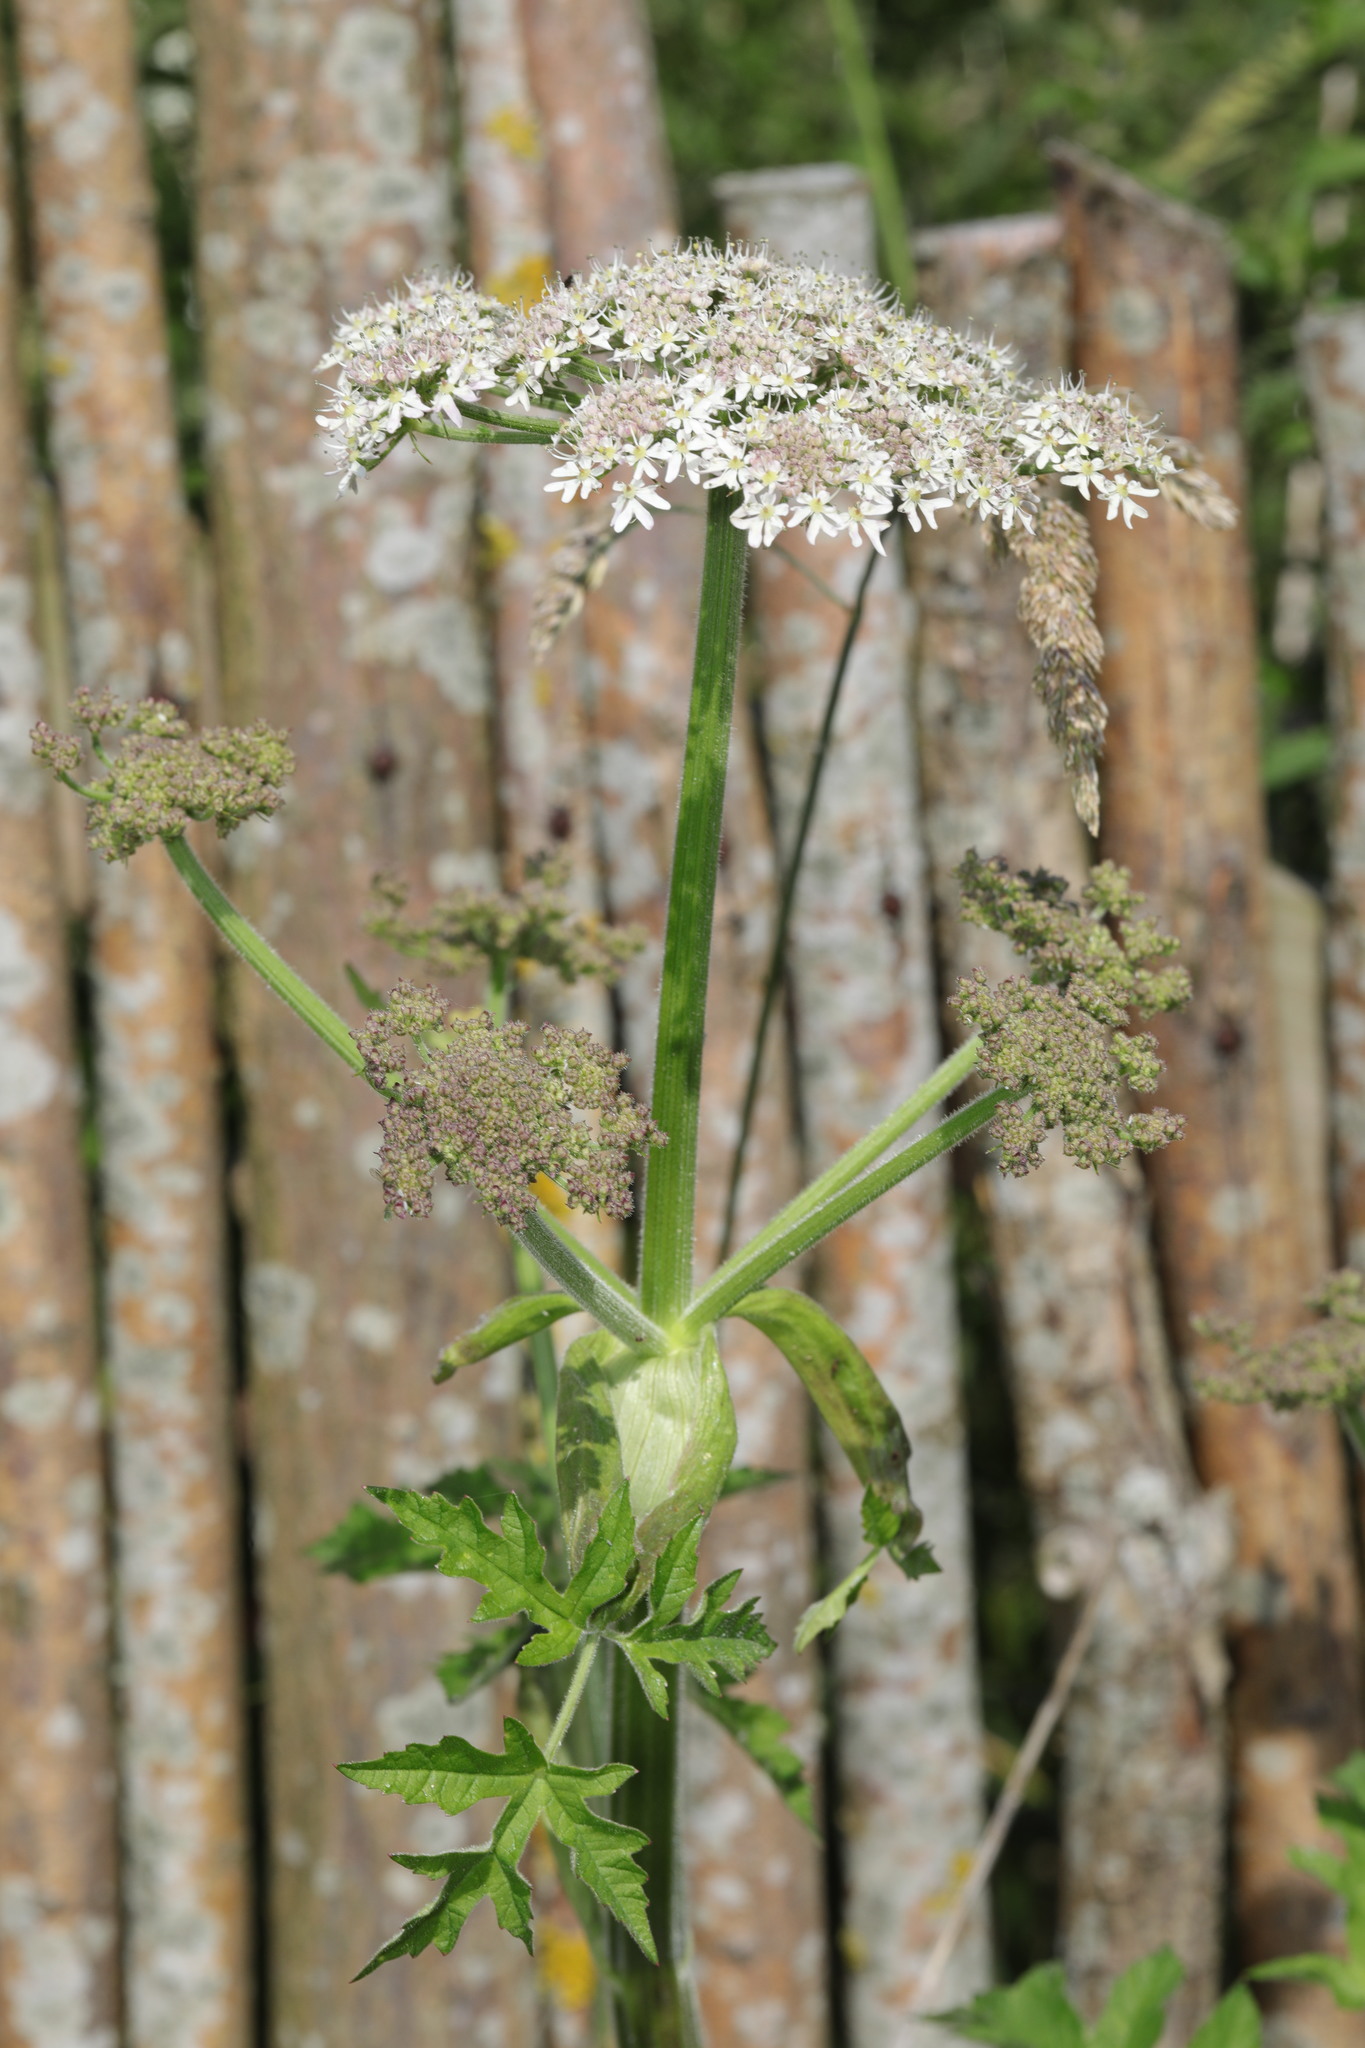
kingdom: Plantae
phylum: Tracheophyta
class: Magnoliopsida
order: Apiales
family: Apiaceae
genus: Heracleum
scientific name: Heracleum sphondylium
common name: Hogweed
